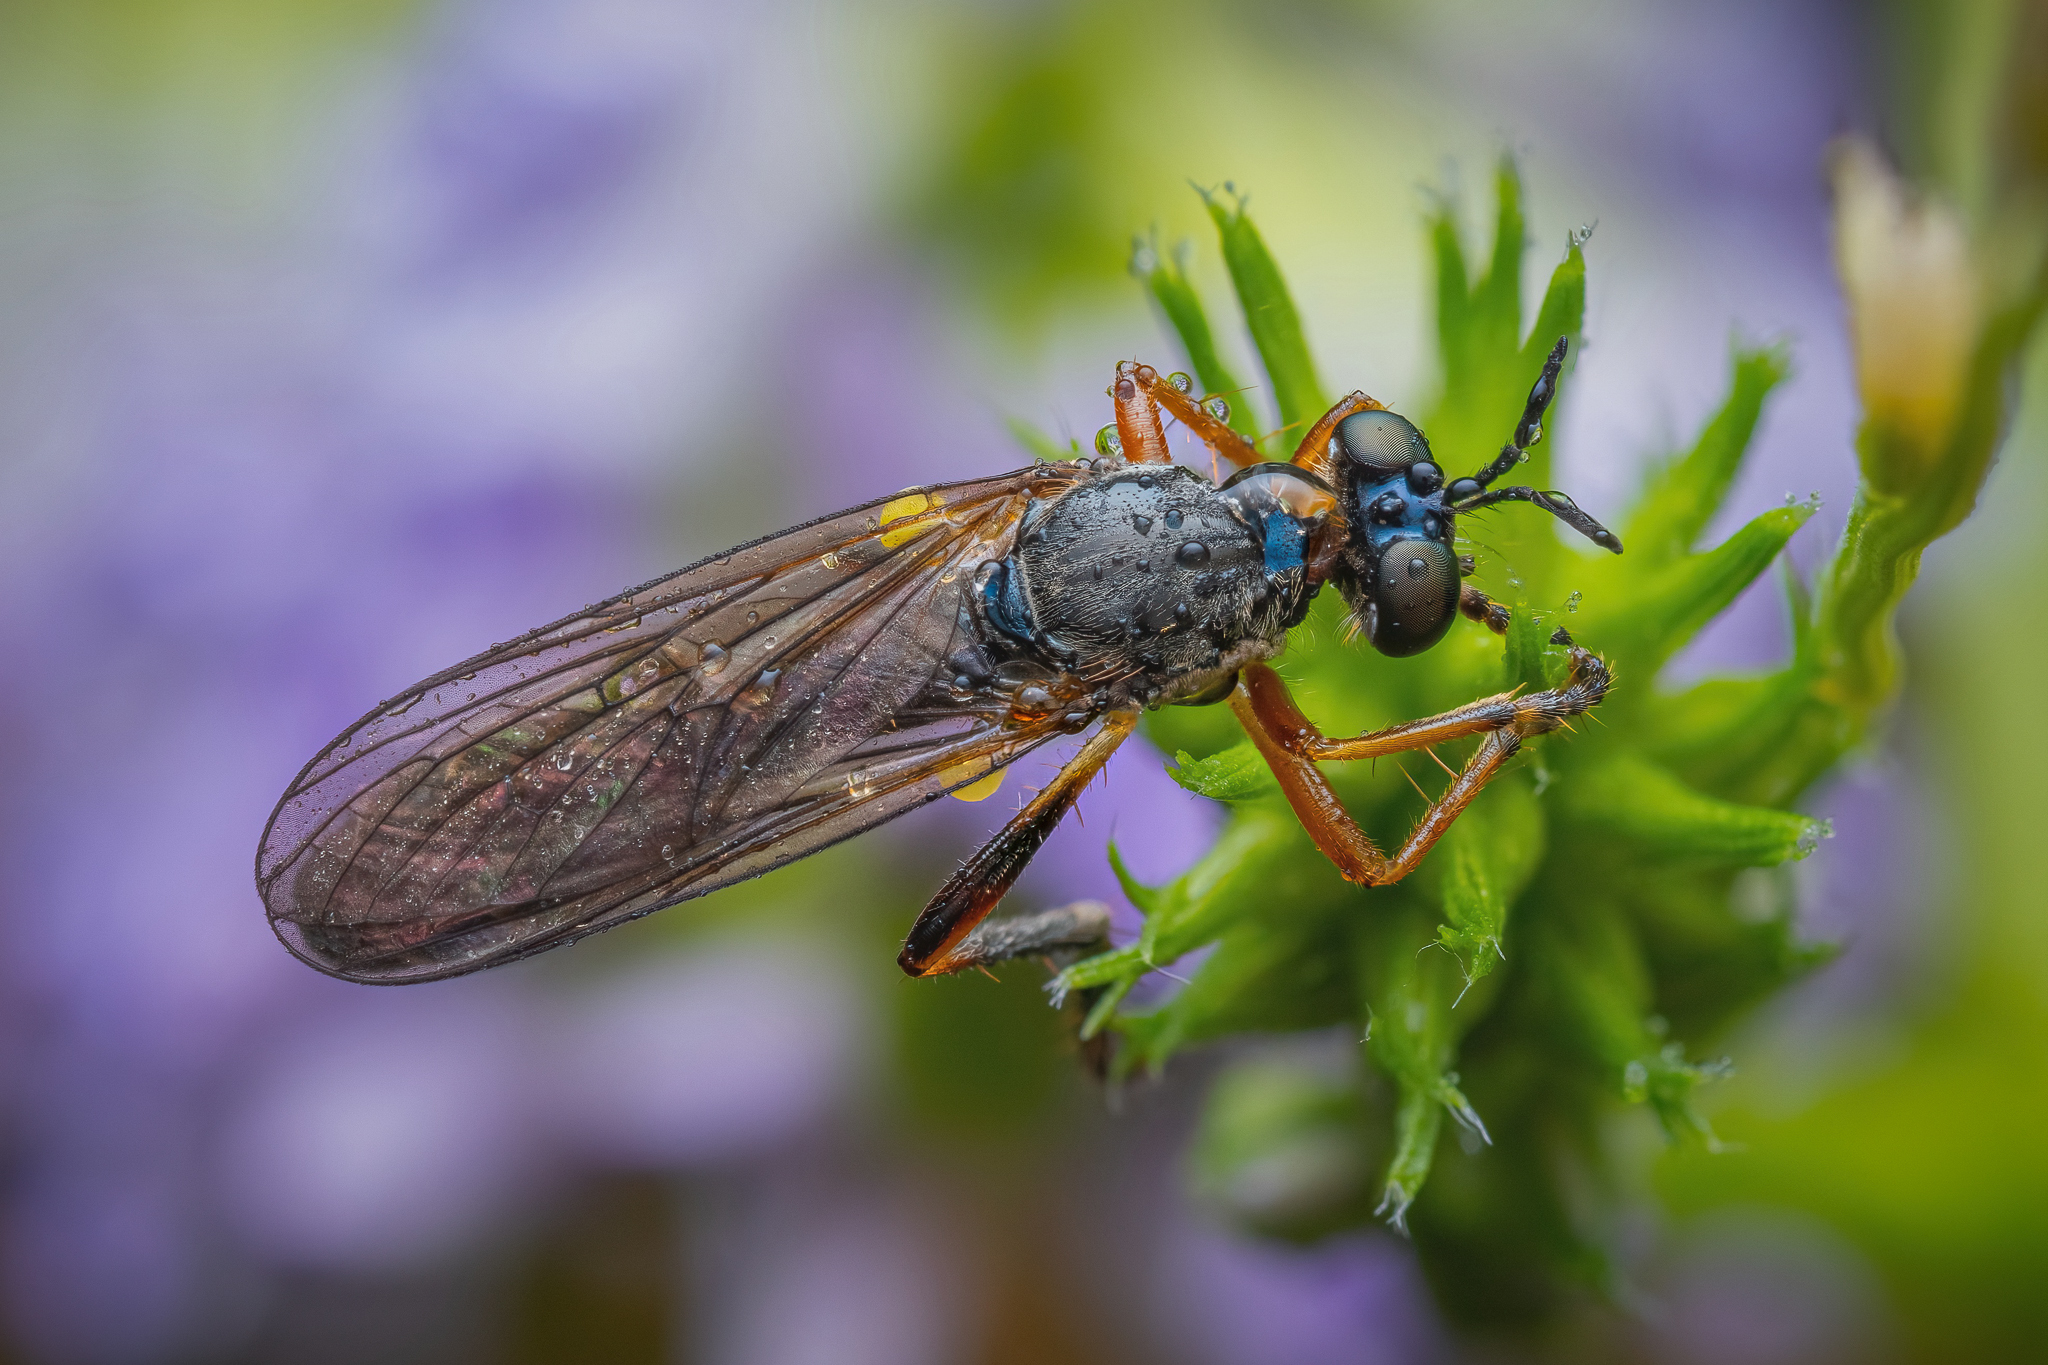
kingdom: Animalia
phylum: Arthropoda
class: Insecta
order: Diptera
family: Asilidae
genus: Dioctria
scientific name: Dioctria hyalipennis
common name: Stripe-legged robberfly
